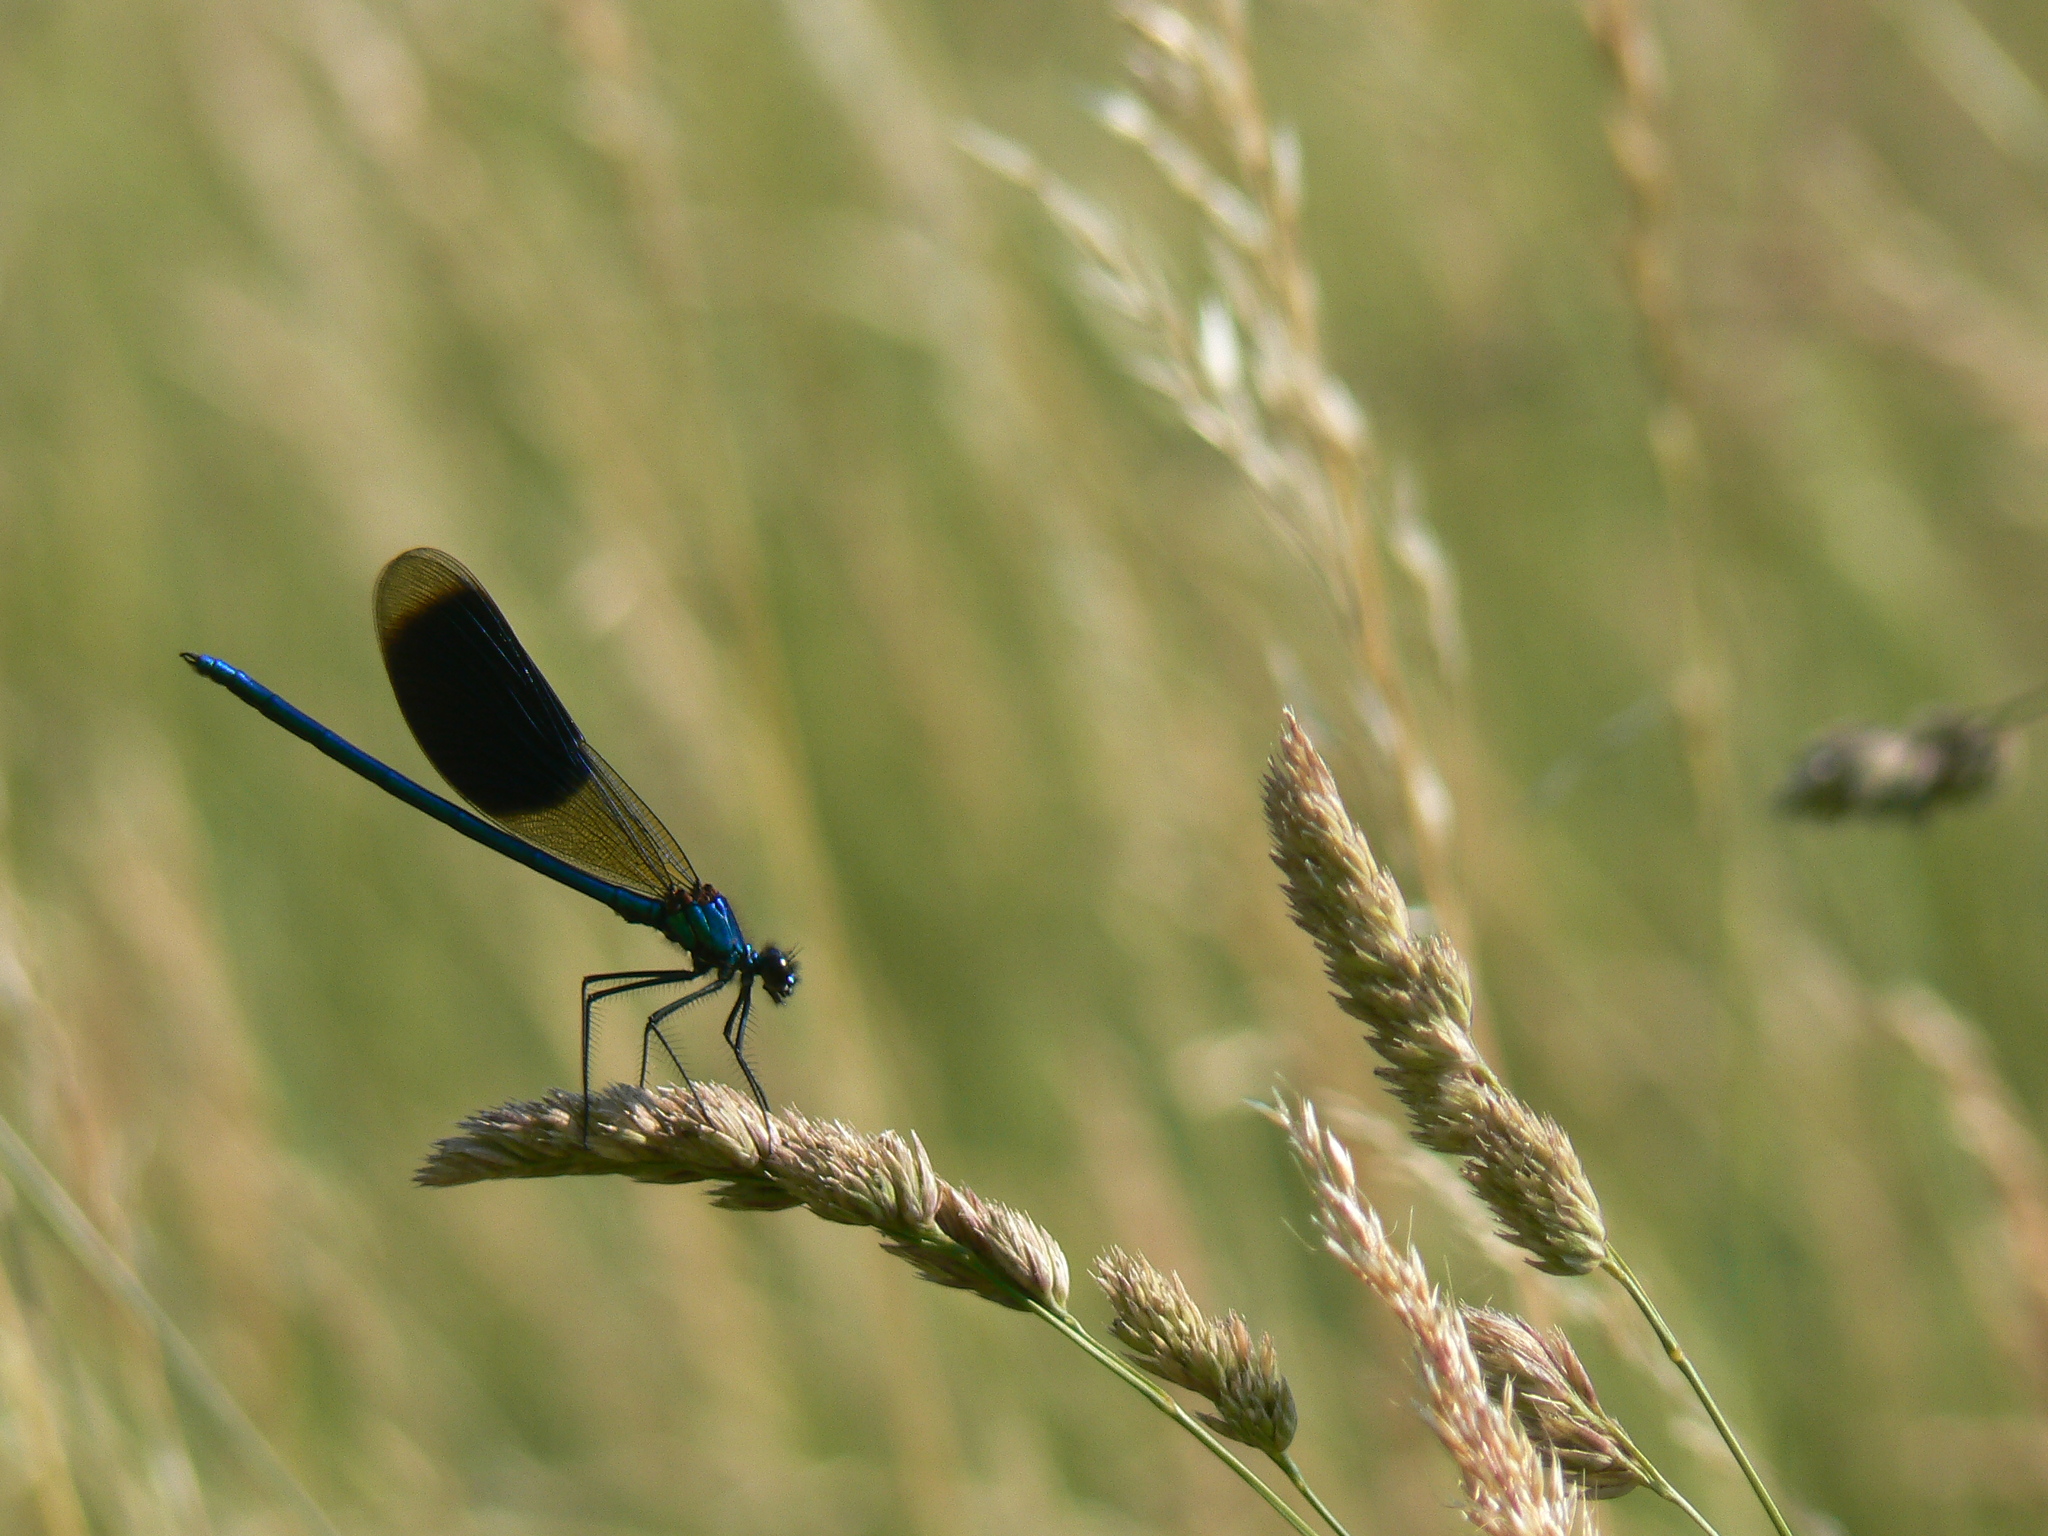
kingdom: Animalia
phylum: Arthropoda
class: Insecta
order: Odonata
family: Calopterygidae
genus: Calopteryx
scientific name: Calopteryx splendens
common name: Banded demoiselle
